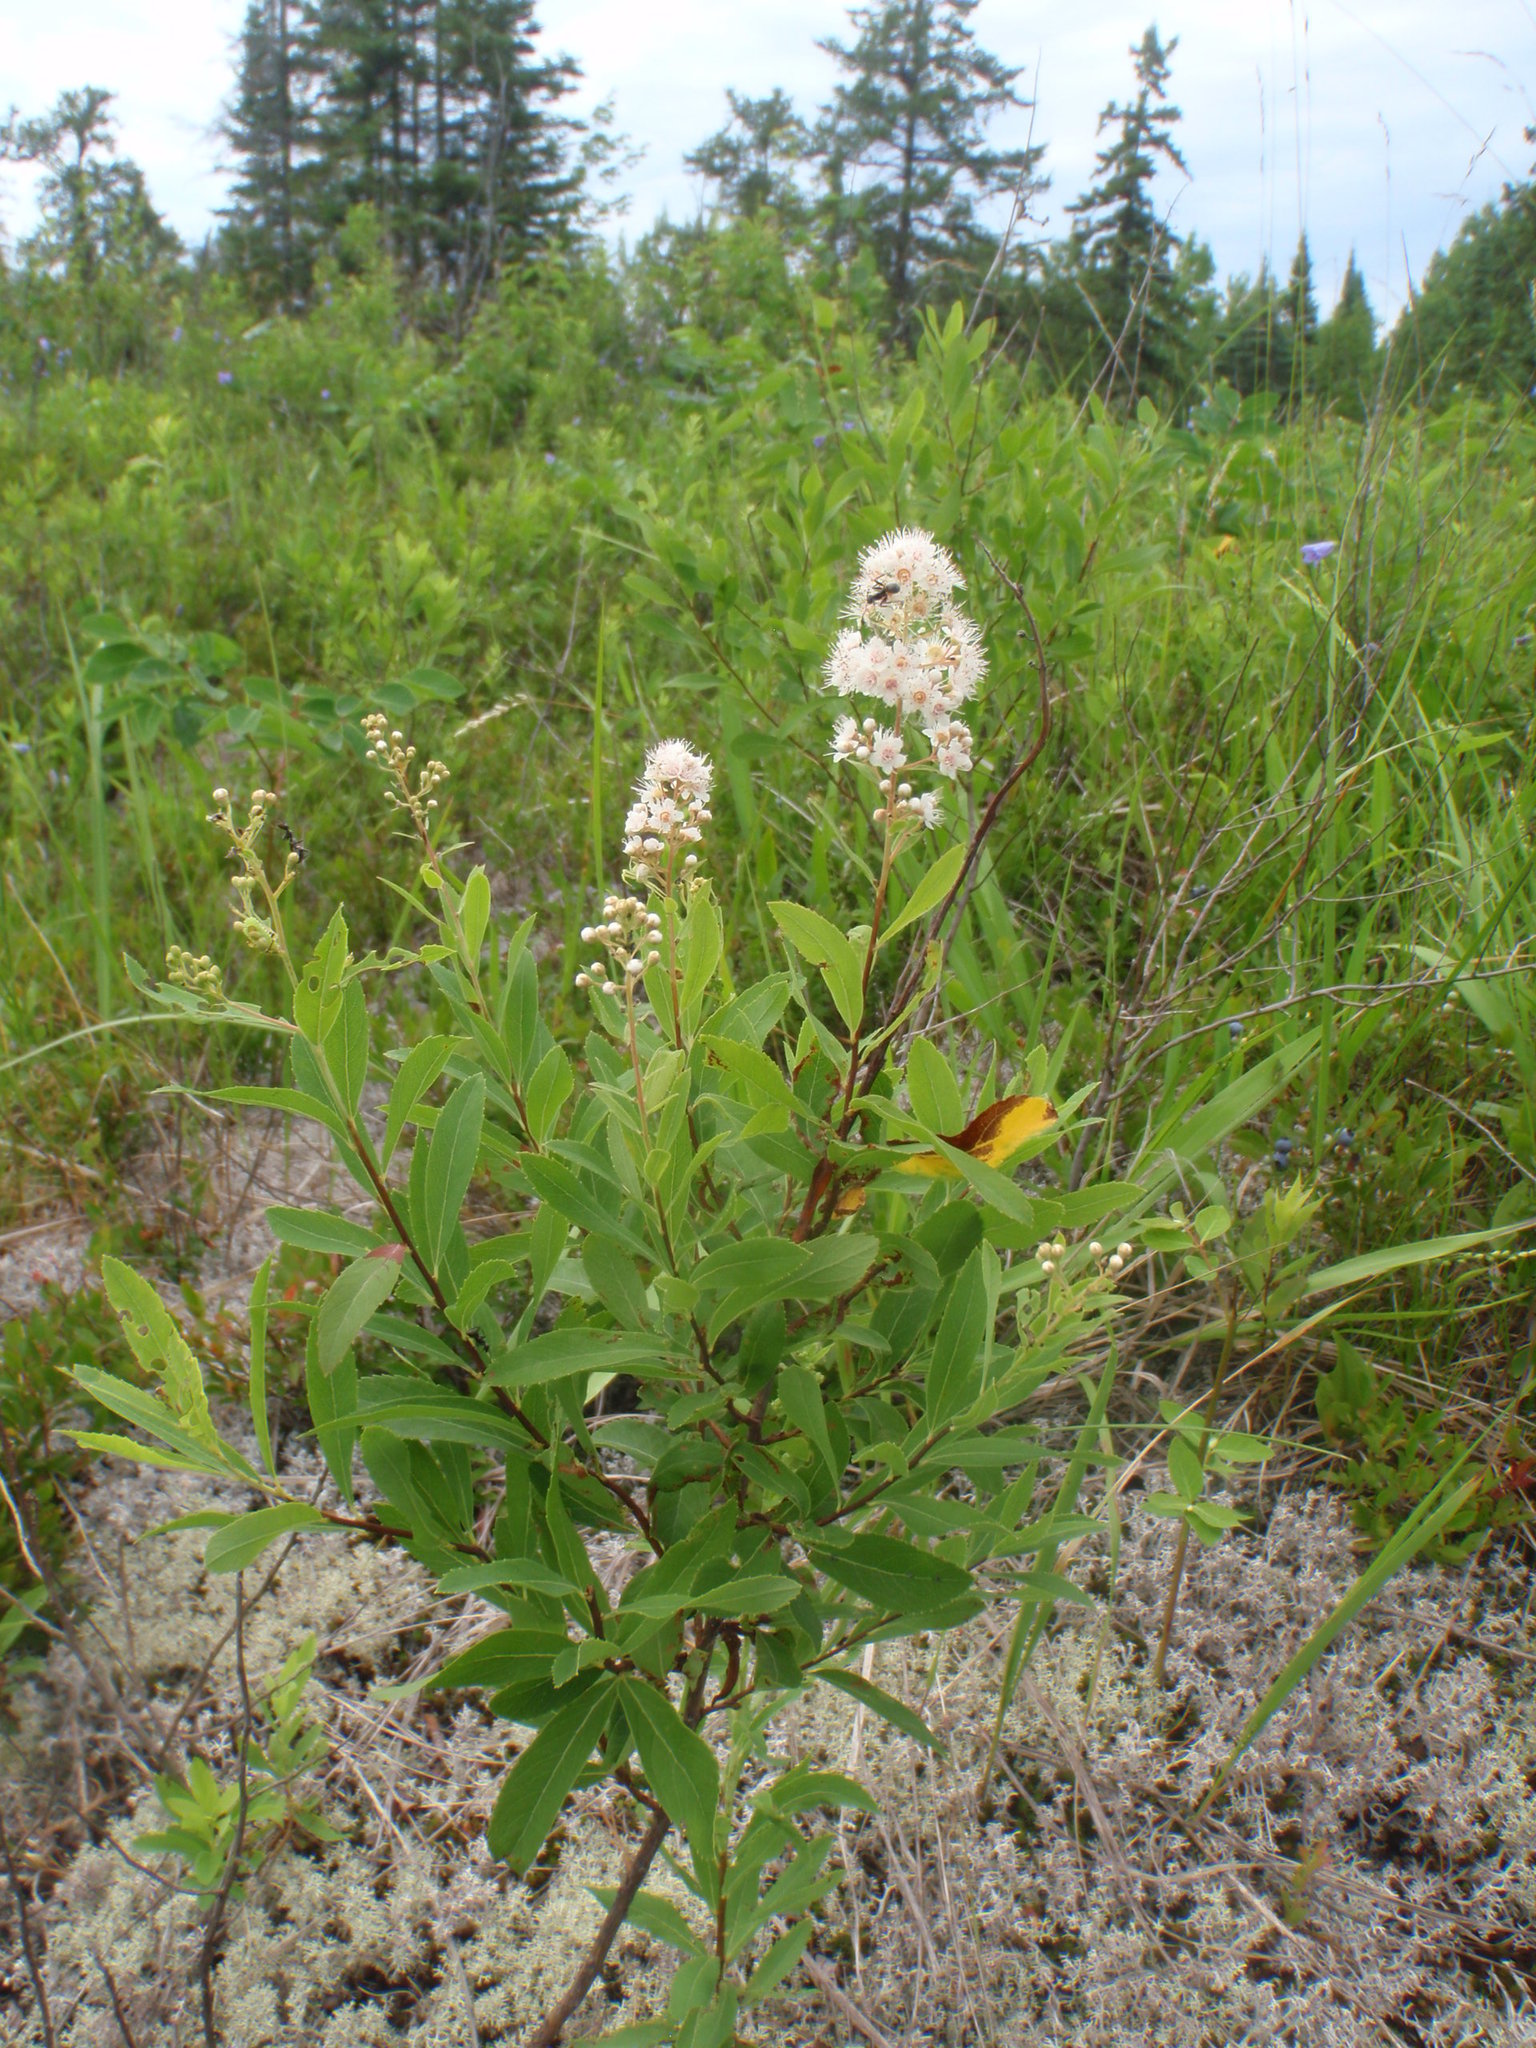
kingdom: Plantae
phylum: Tracheophyta
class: Magnoliopsida
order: Rosales
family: Rosaceae
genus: Spiraea
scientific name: Spiraea alba
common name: Pale bridewort
